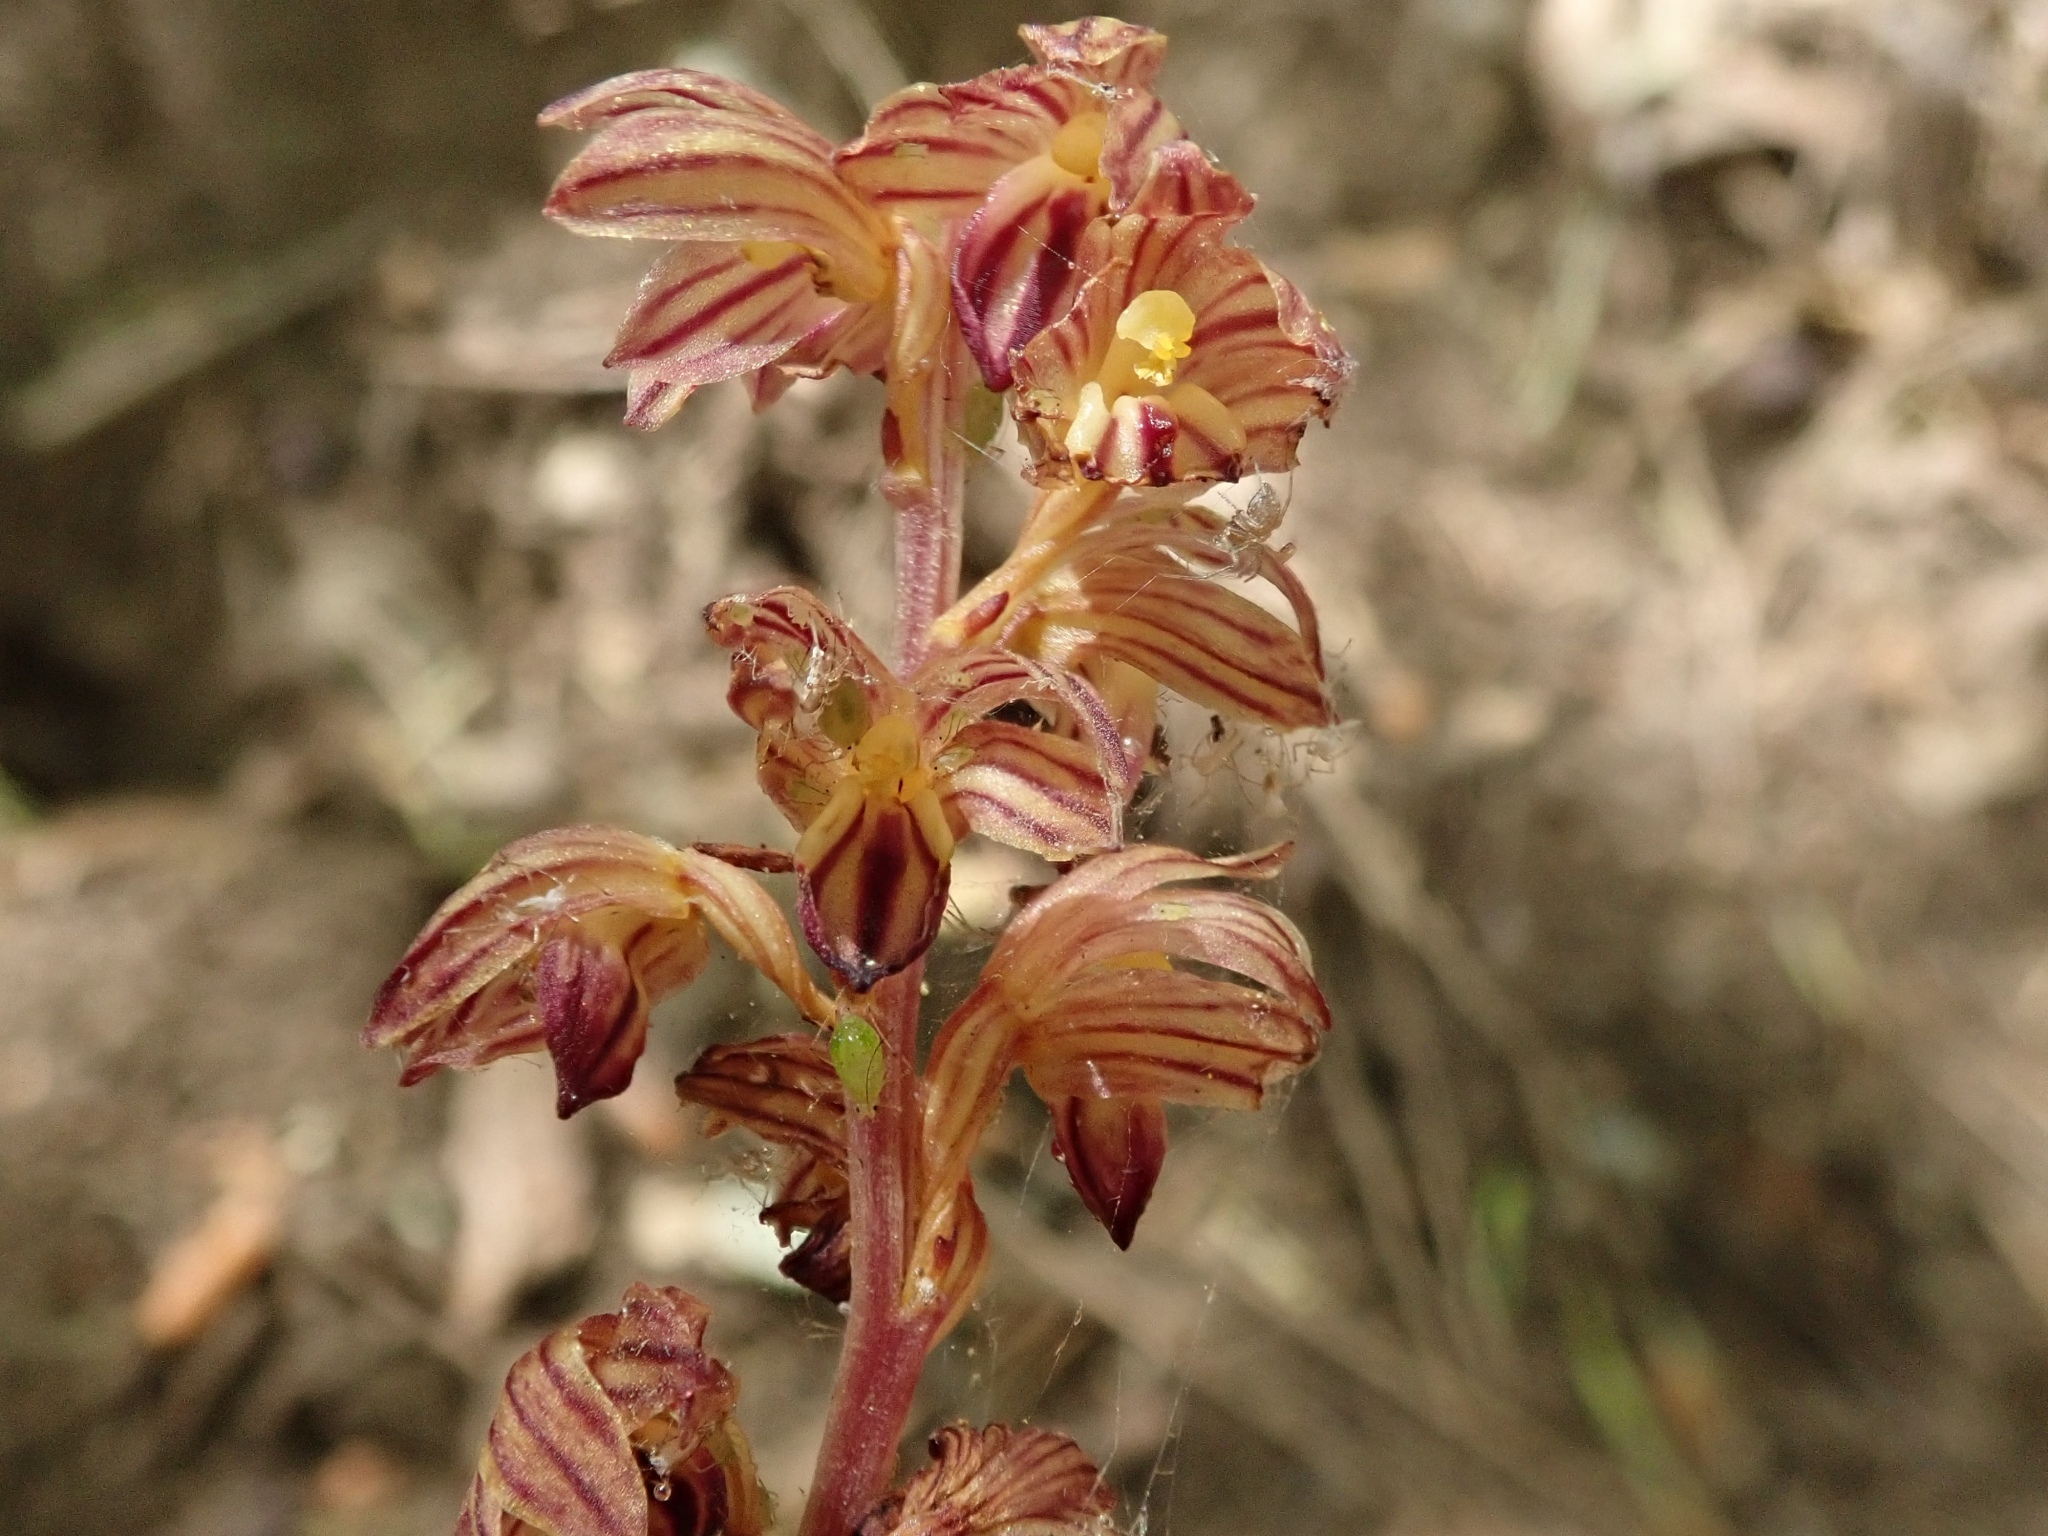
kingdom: Plantae
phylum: Tracheophyta
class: Liliopsida
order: Asparagales
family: Orchidaceae
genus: Corallorhiza
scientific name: Corallorhiza striata
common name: Hooded coralroot
